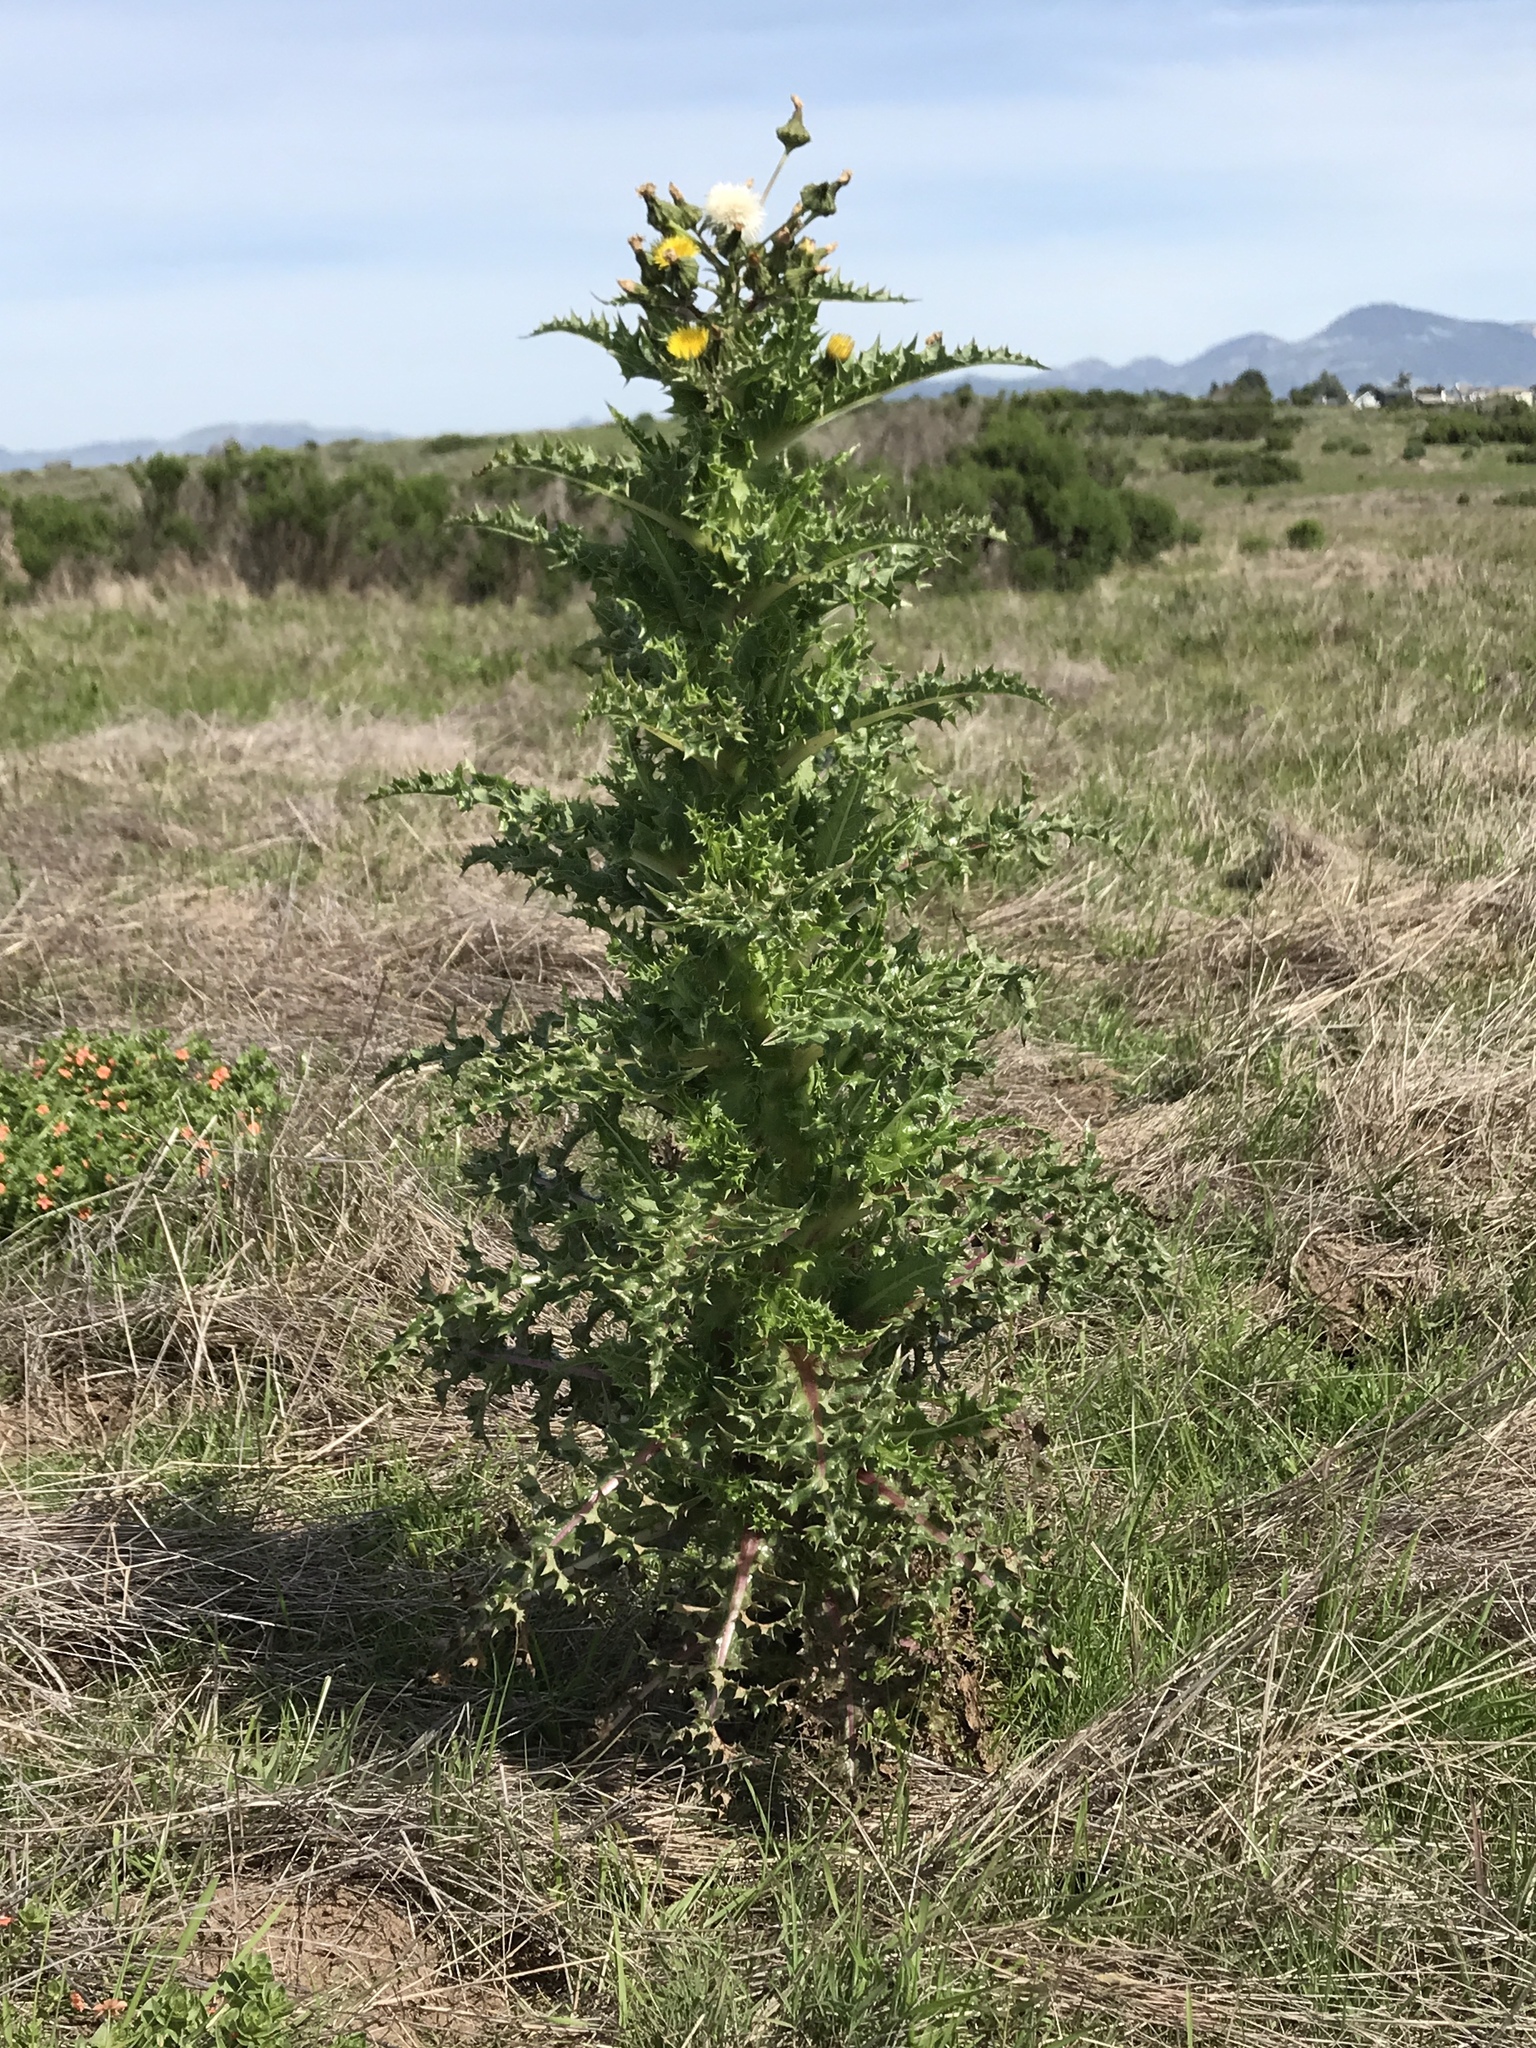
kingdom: Plantae
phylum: Tracheophyta
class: Magnoliopsida
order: Asterales
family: Asteraceae
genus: Sonchus
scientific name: Sonchus asper
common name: Prickly sow-thistle
